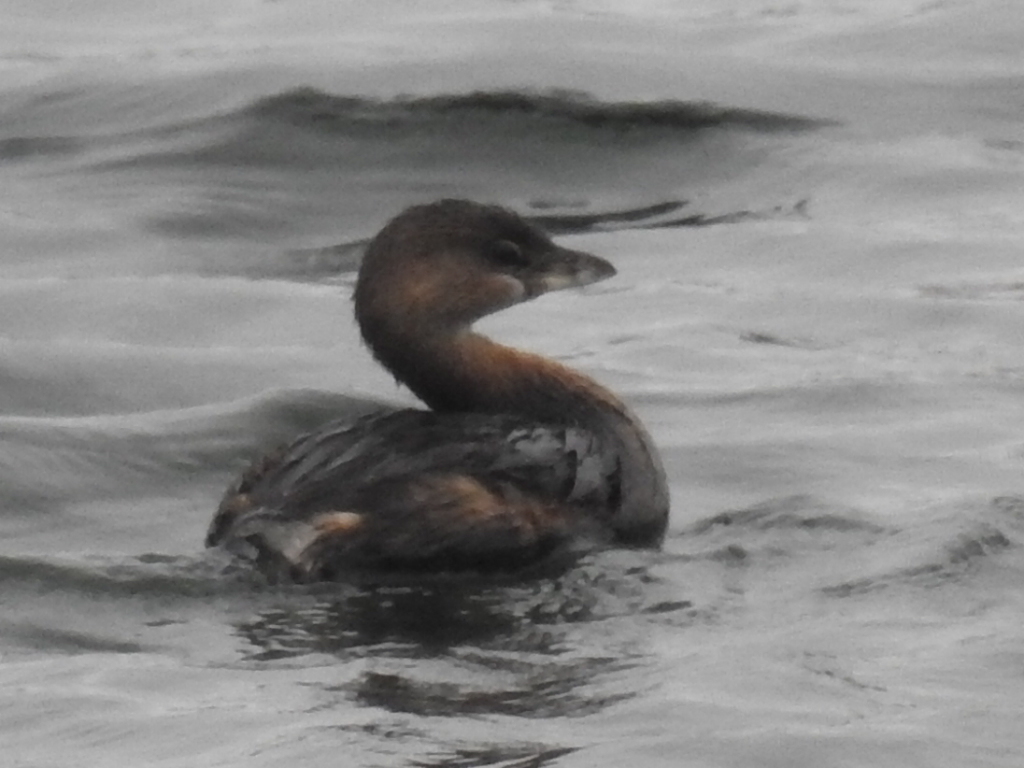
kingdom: Animalia
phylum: Chordata
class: Aves
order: Podicipediformes
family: Podicipedidae
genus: Podilymbus
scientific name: Podilymbus podiceps
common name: Pied-billed grebe
